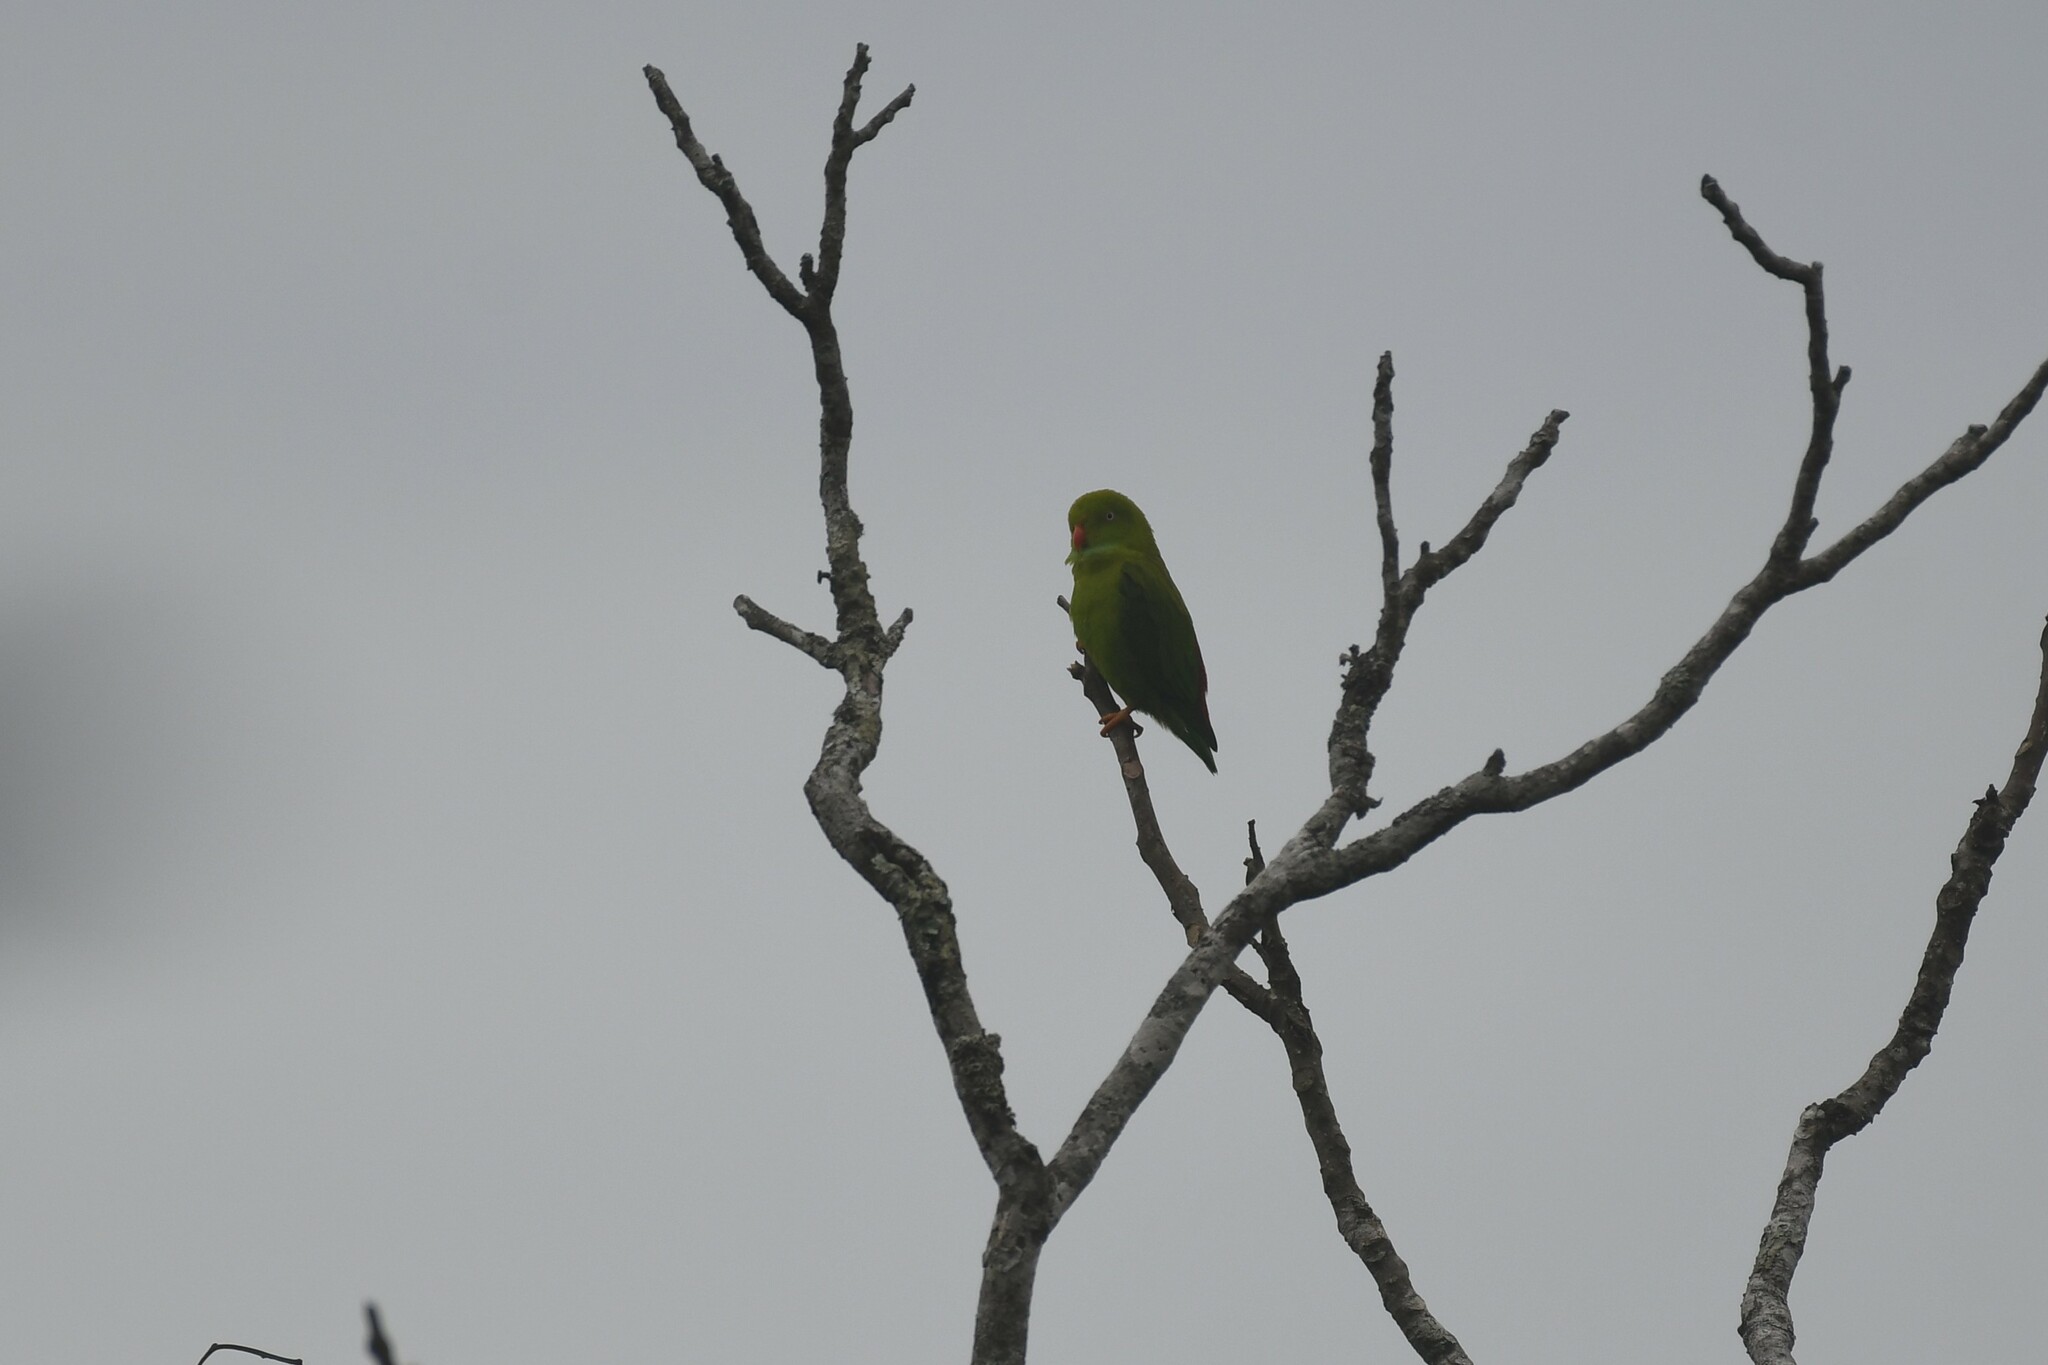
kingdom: Animalia
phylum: Chordata
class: Aves
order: Psittaciformes
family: Psittacidae
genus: Loriculus
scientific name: Loriculus vernalis
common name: Vernal hanging parrot
